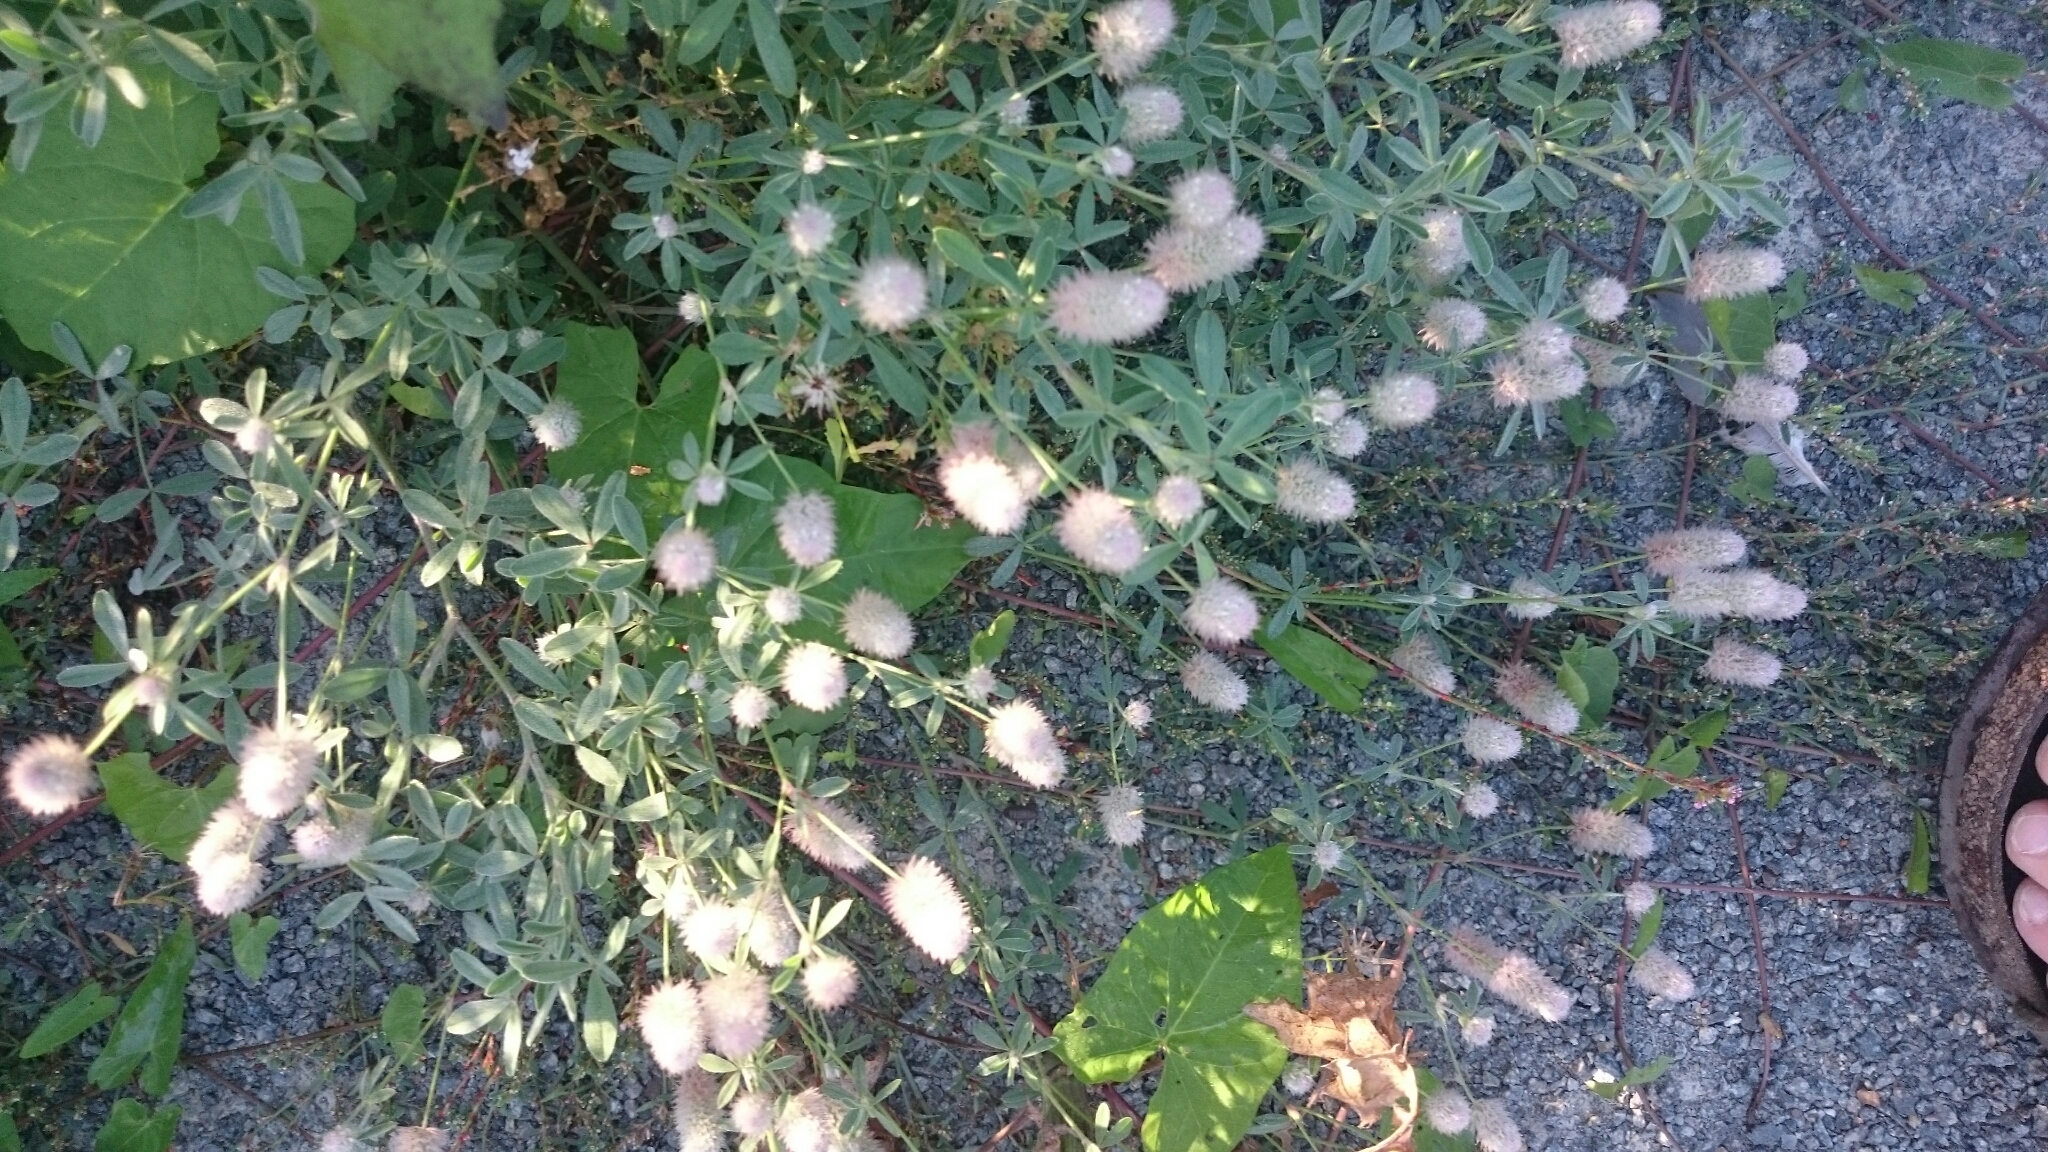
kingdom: Plantae
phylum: Tracheophyta
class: Magnoliopsida
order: Fabales
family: Fabaceae
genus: Trifolium
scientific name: Trifolium arvense
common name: Hare's-foot clover
